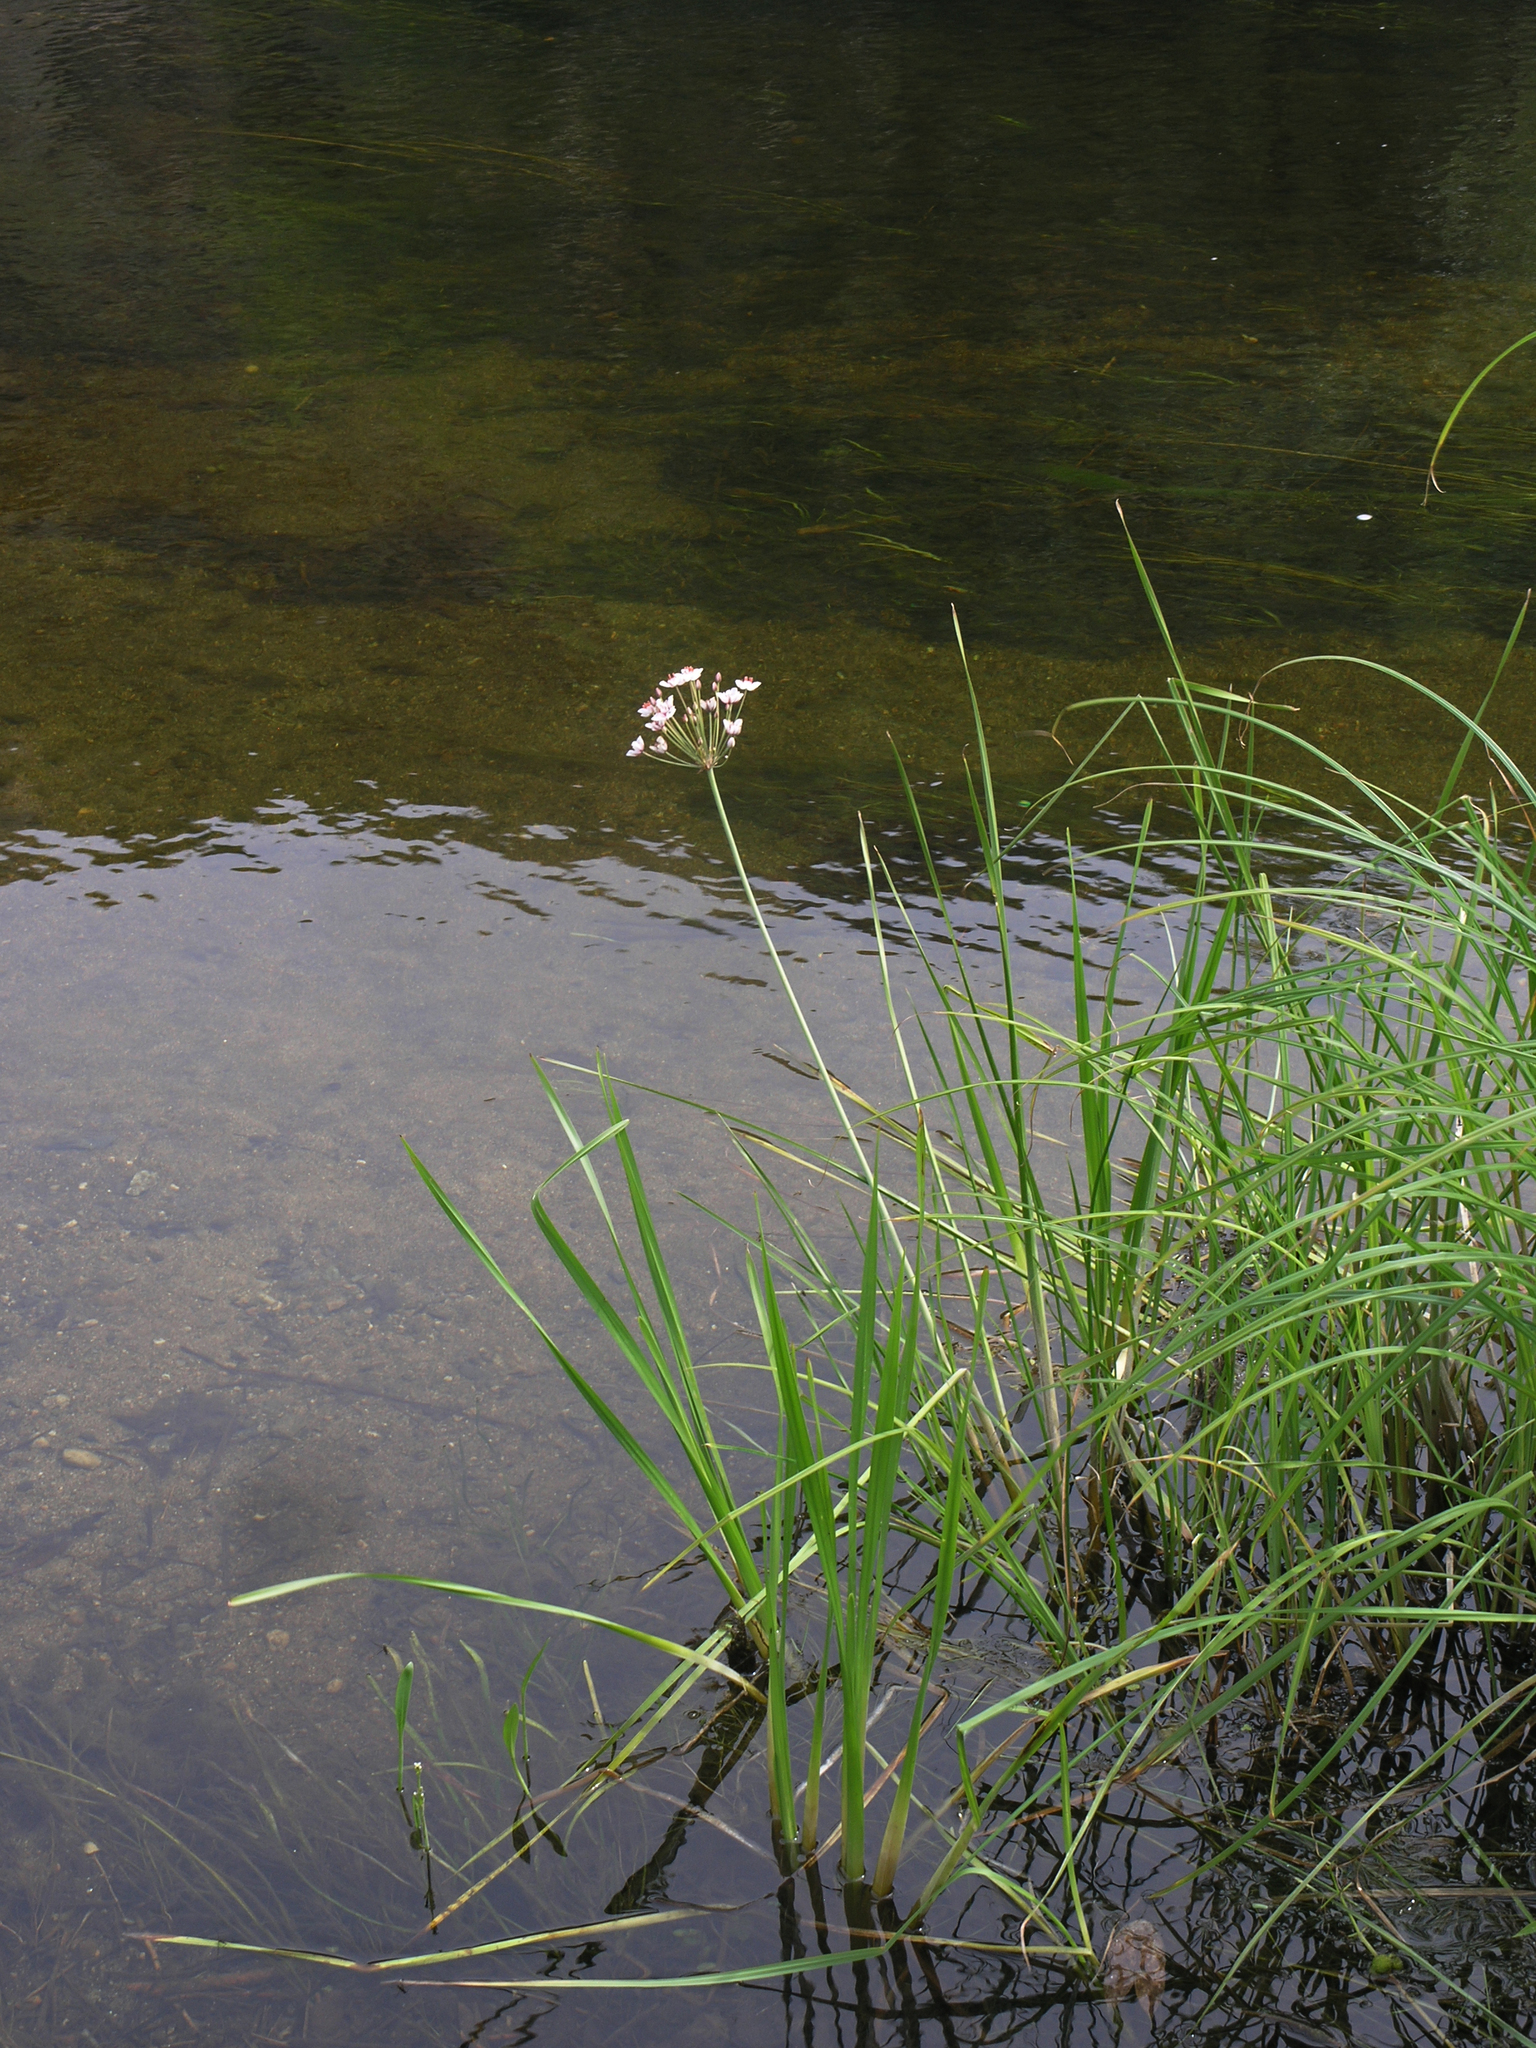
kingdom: Plantae
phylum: Tracheophyta
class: Liliopsida
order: Alismatales
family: Butomaceae
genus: Butomus
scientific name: Butomus umbellatus
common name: Flowering-rush
